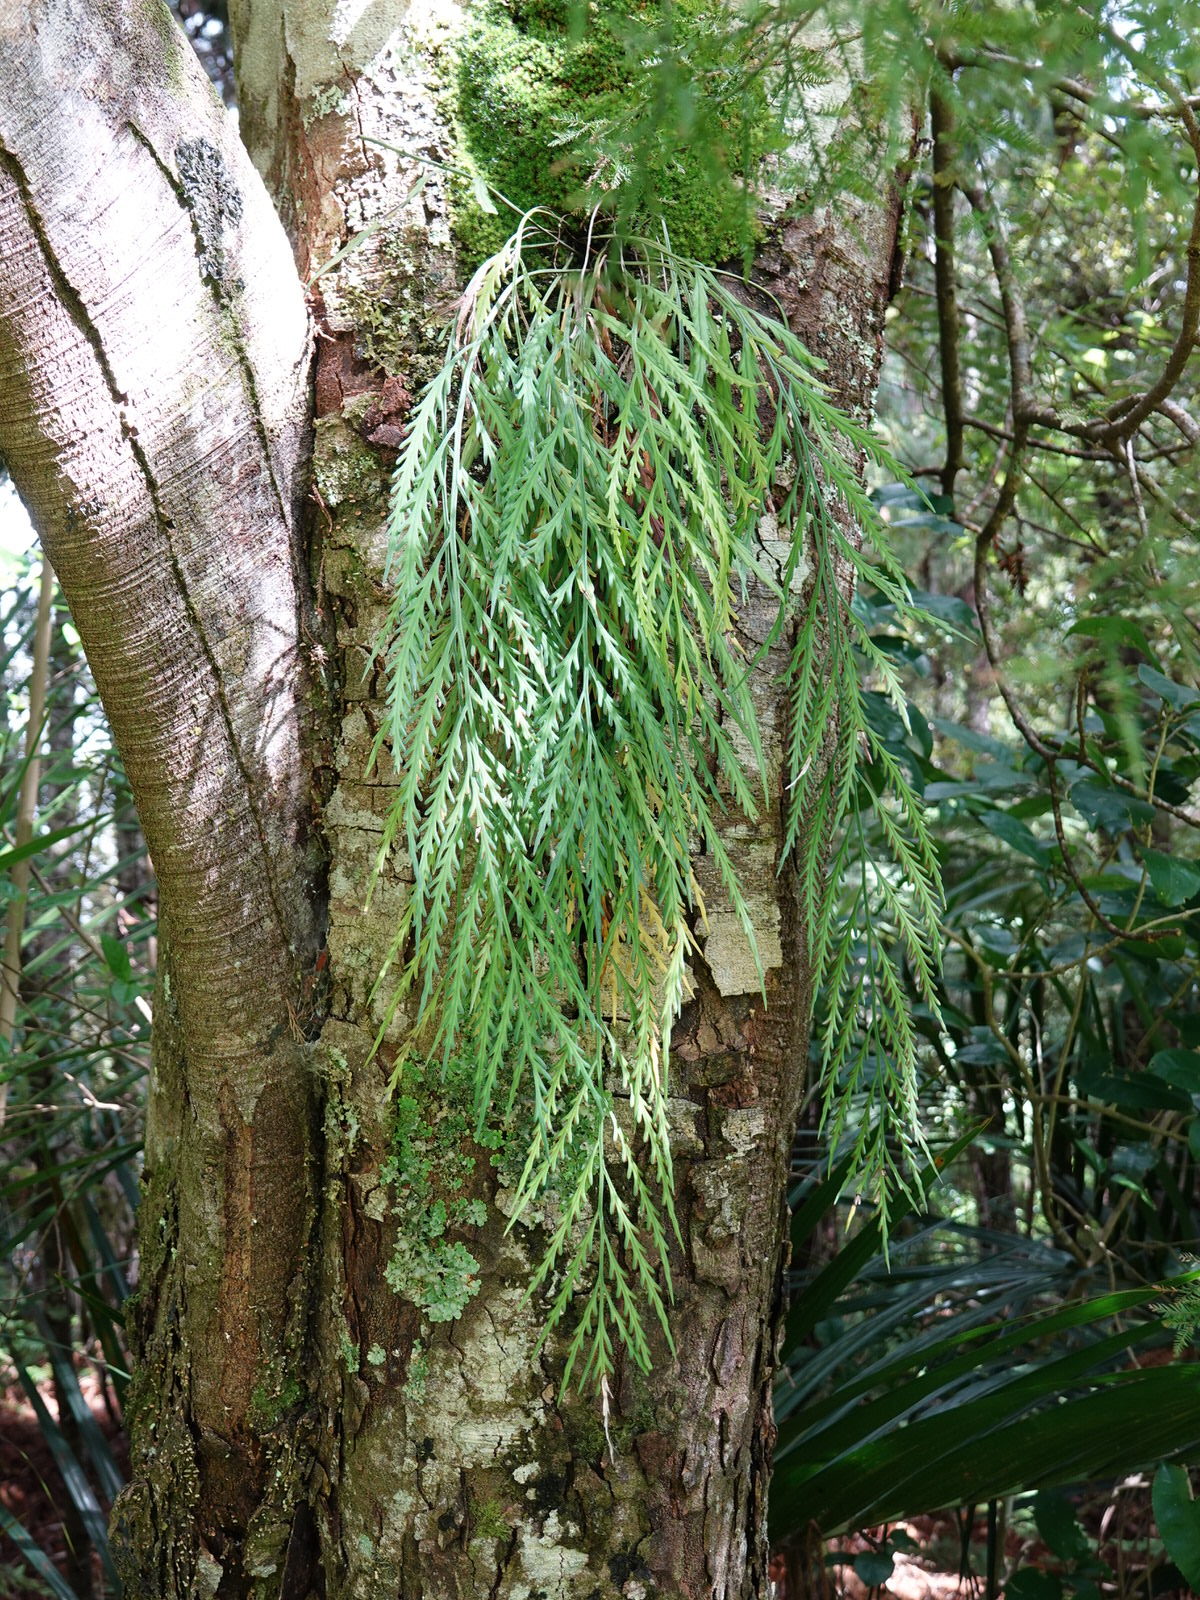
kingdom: Plantae
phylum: Tracheophyta
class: Polypodiopsida
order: Polypodiales
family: Aspleniaceae
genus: Asplenium
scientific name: Asplenium flaccidum
